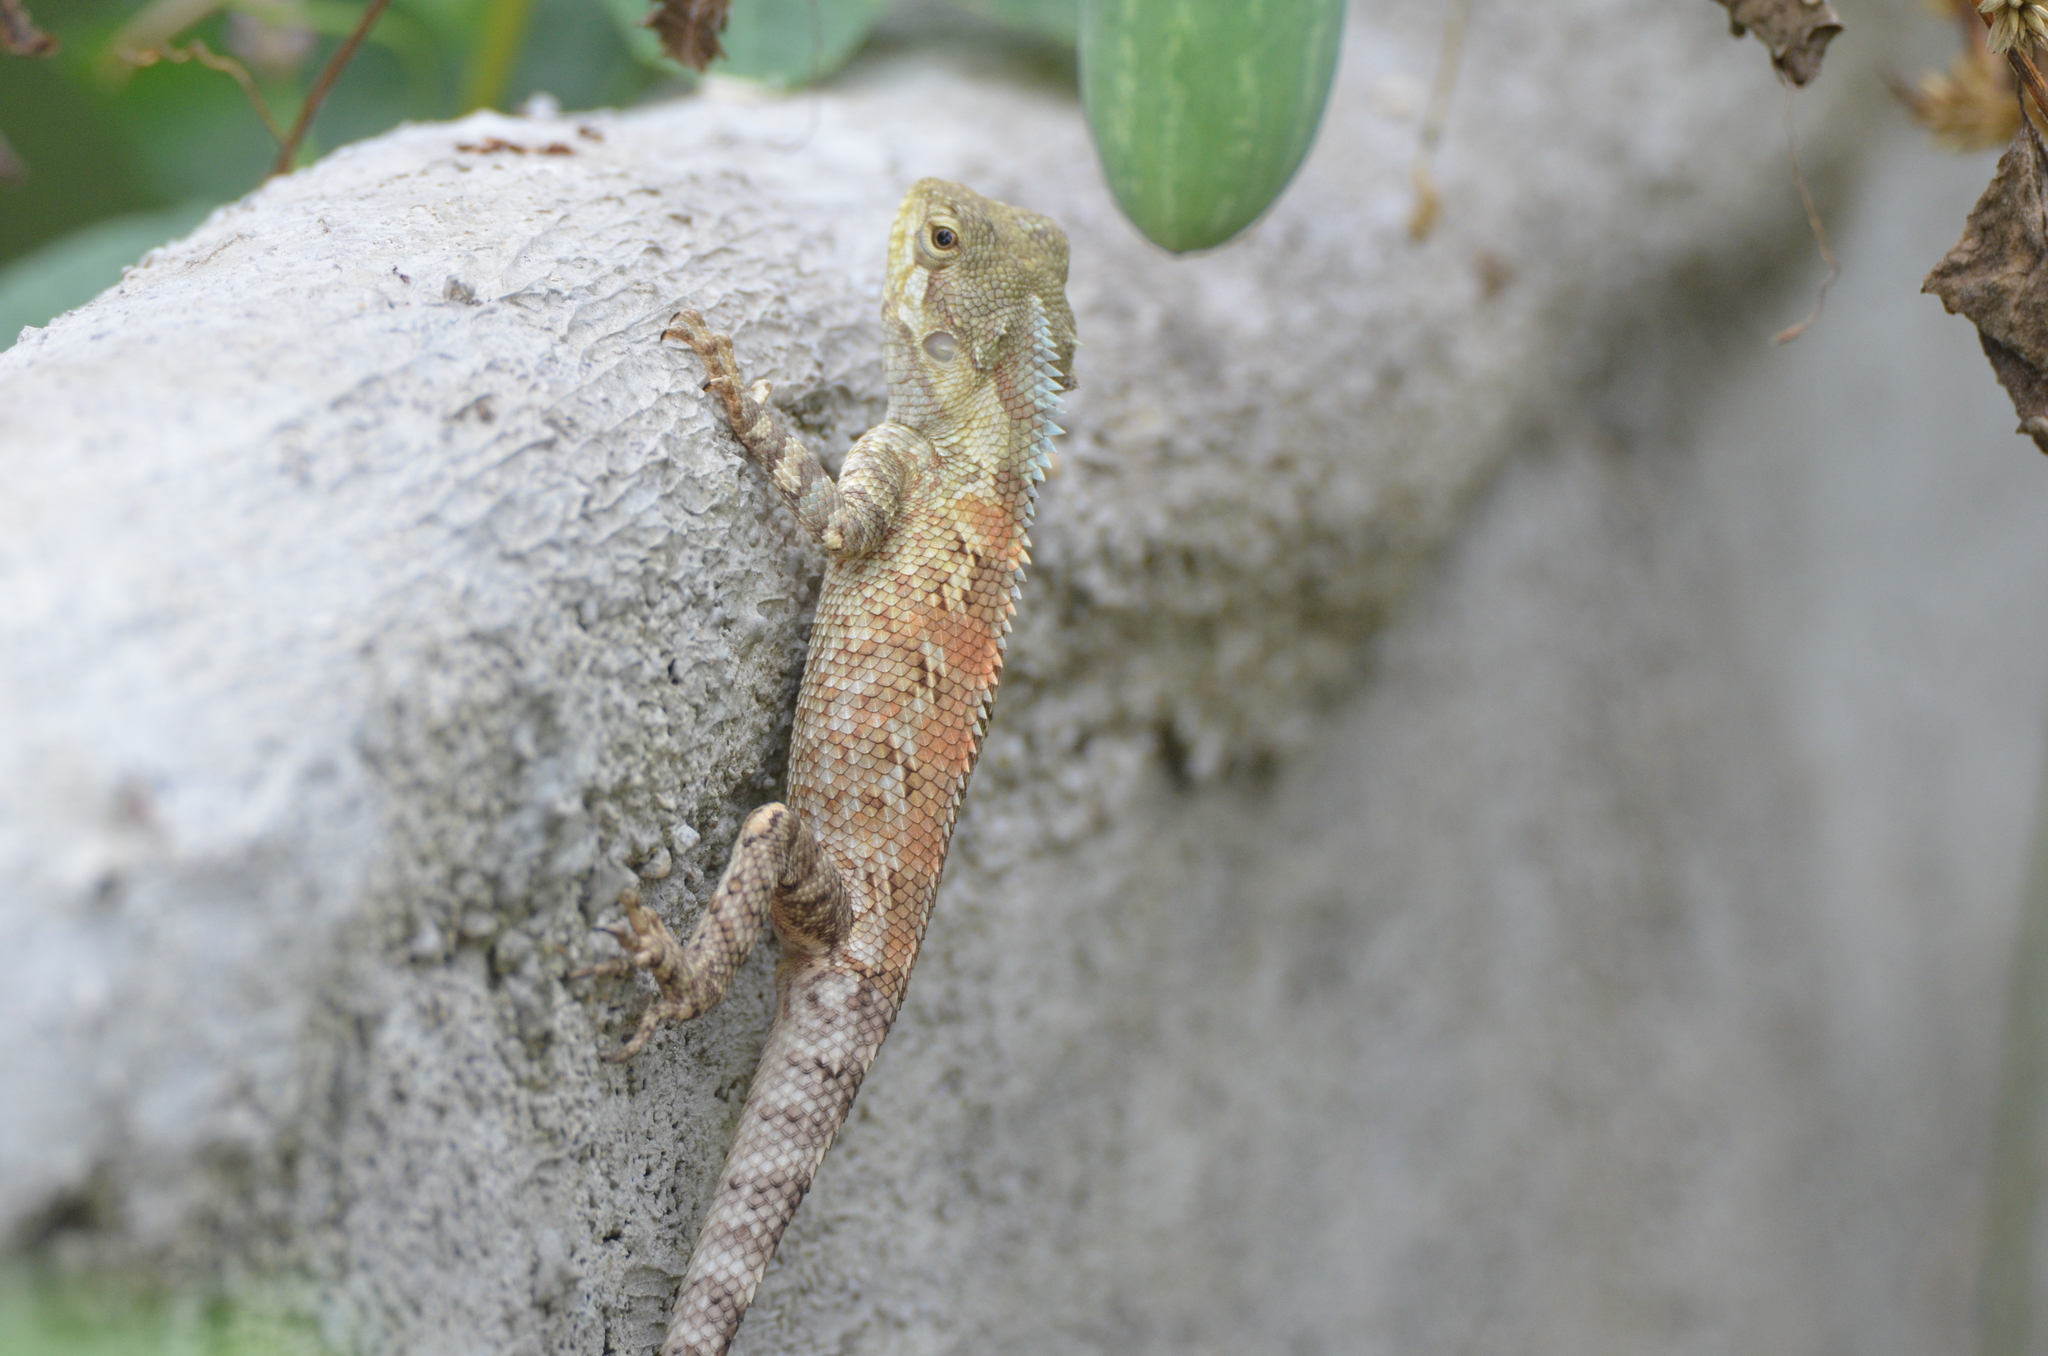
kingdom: Animalia
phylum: Chordata
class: Squamata
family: Agamidae
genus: Calotes
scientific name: Calotes goetzi
